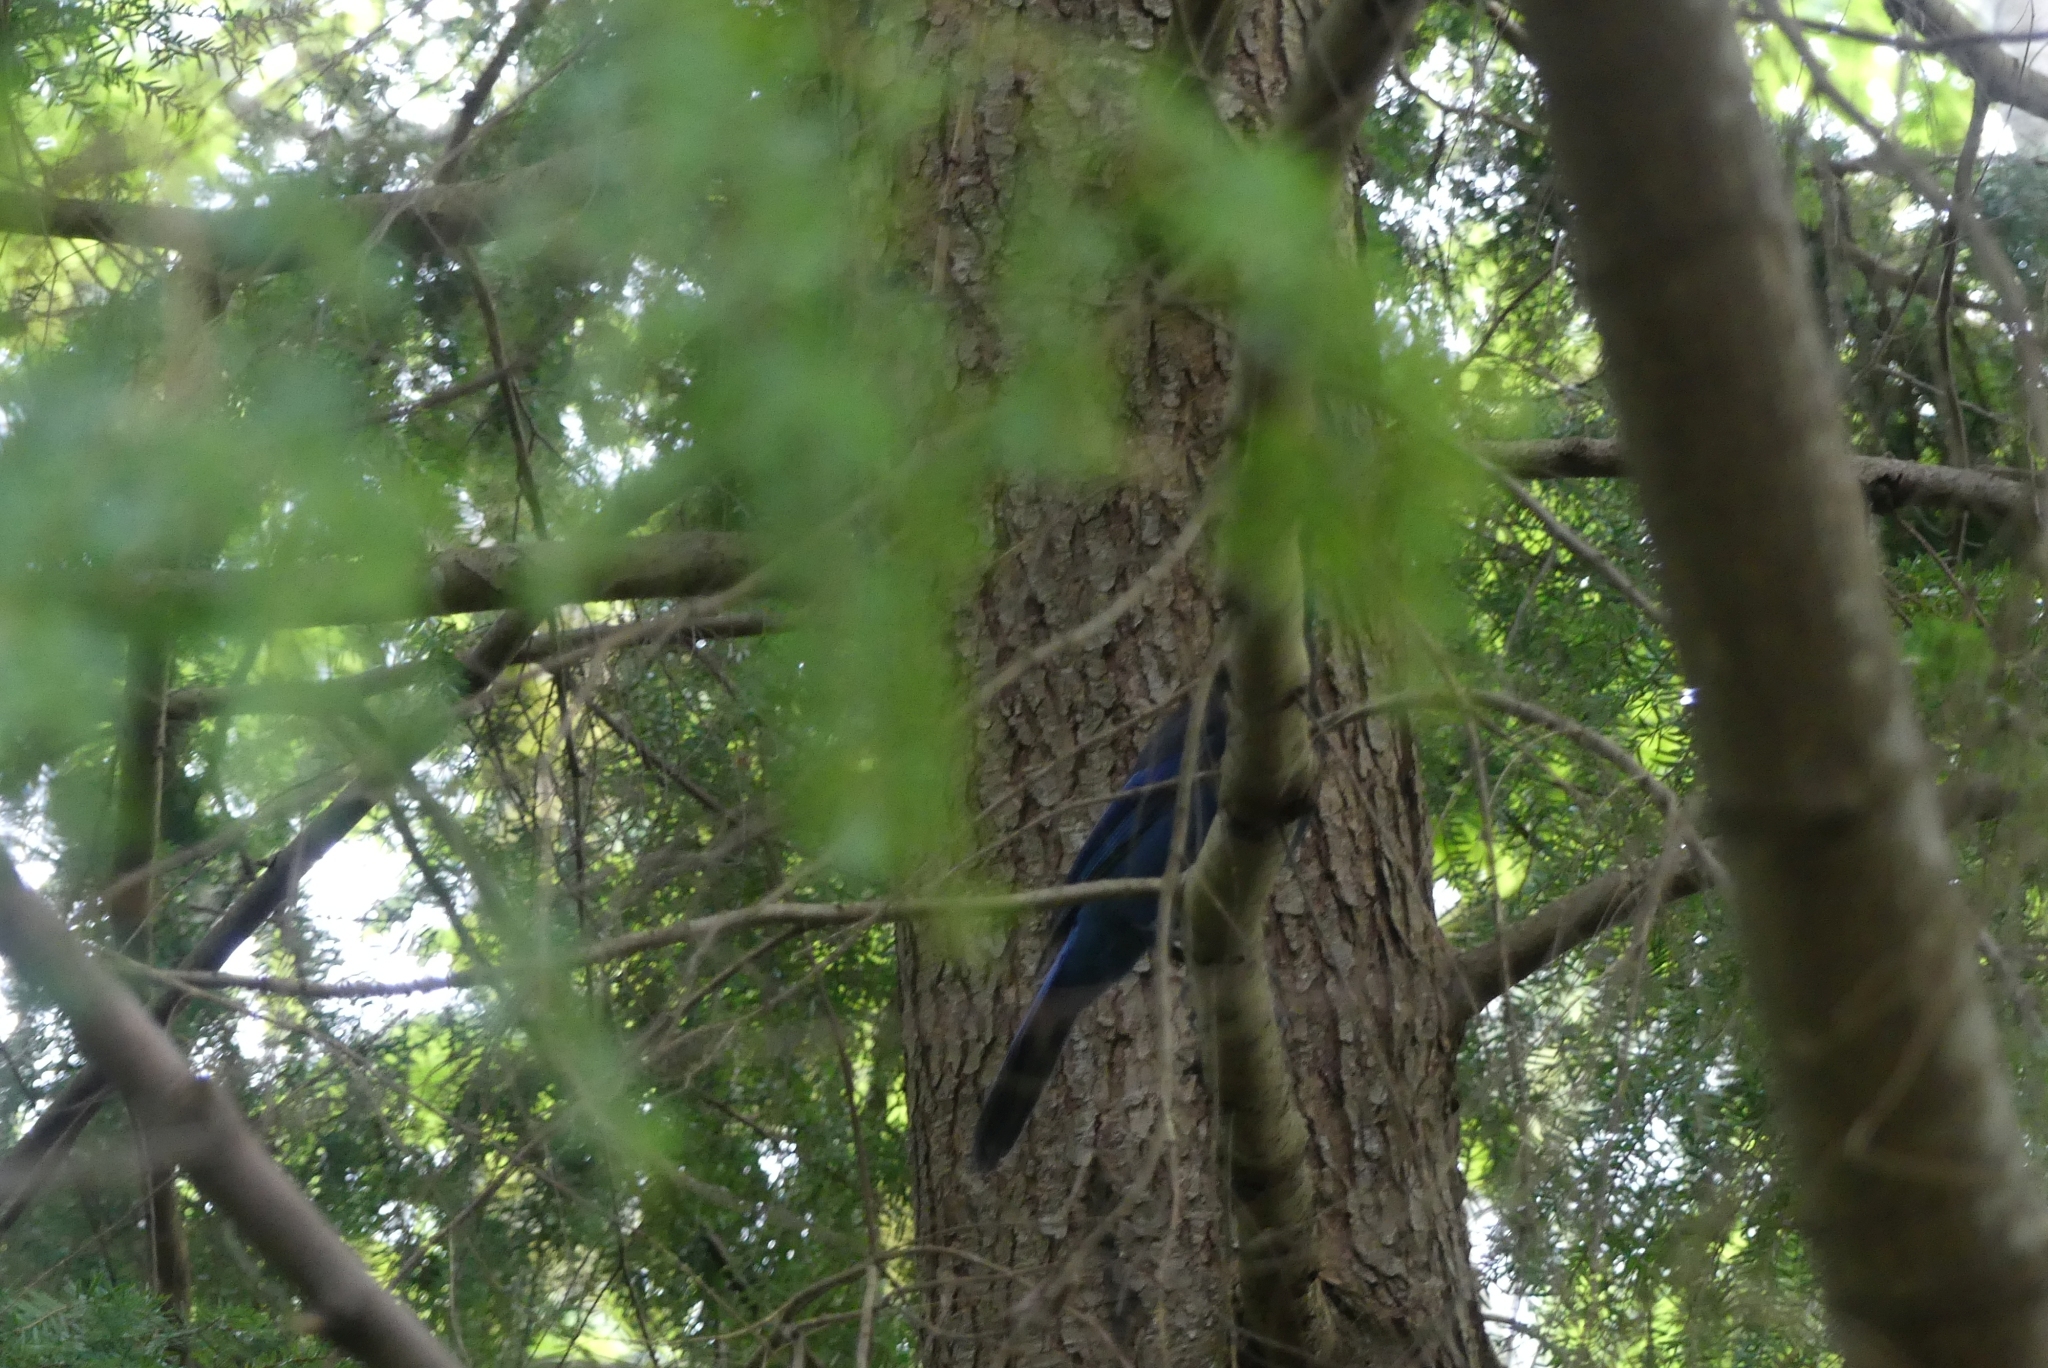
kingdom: Animalia
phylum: Chordata
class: Aves
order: Passeriformes
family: Corvidae
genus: Cyanocitta
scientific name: Cyanocitta stelleri
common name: Steller's jay
